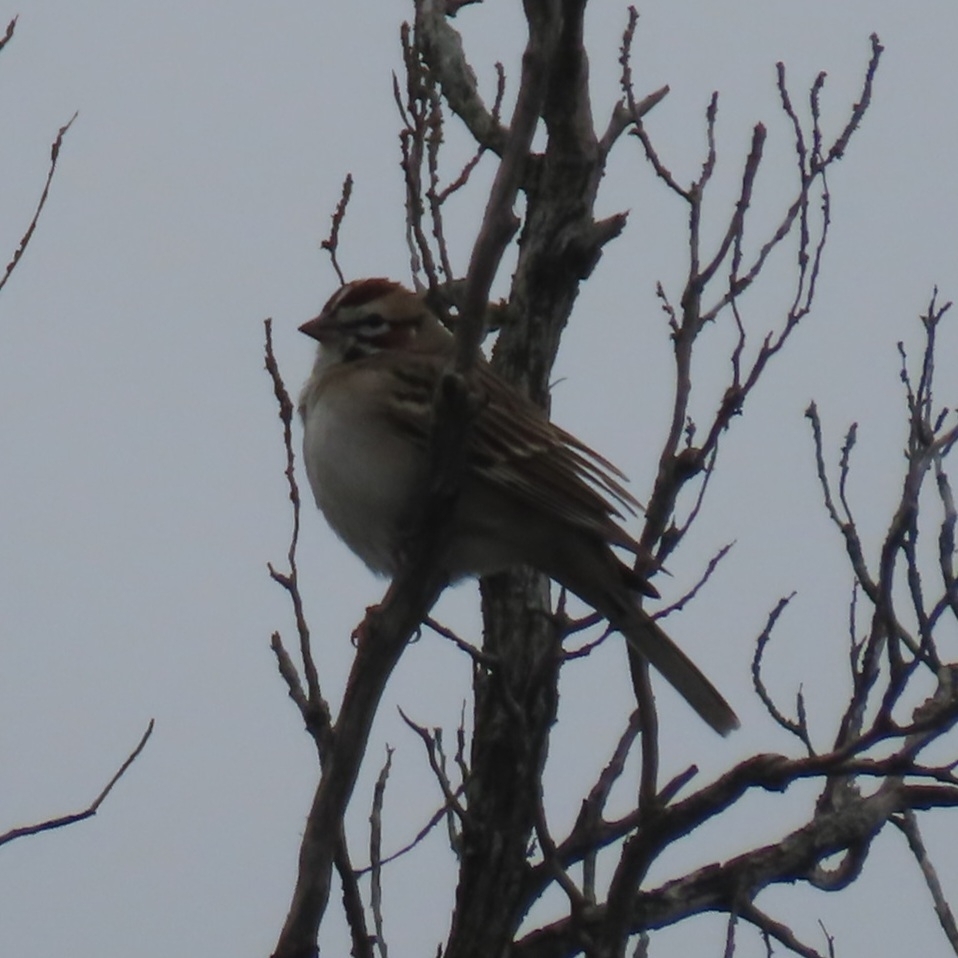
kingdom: Animalia
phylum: Chordata
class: Aves
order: Passeriformes
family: Passerellidae
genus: Chondestes
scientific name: Chondestes grammacus
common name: Lark sparrow
